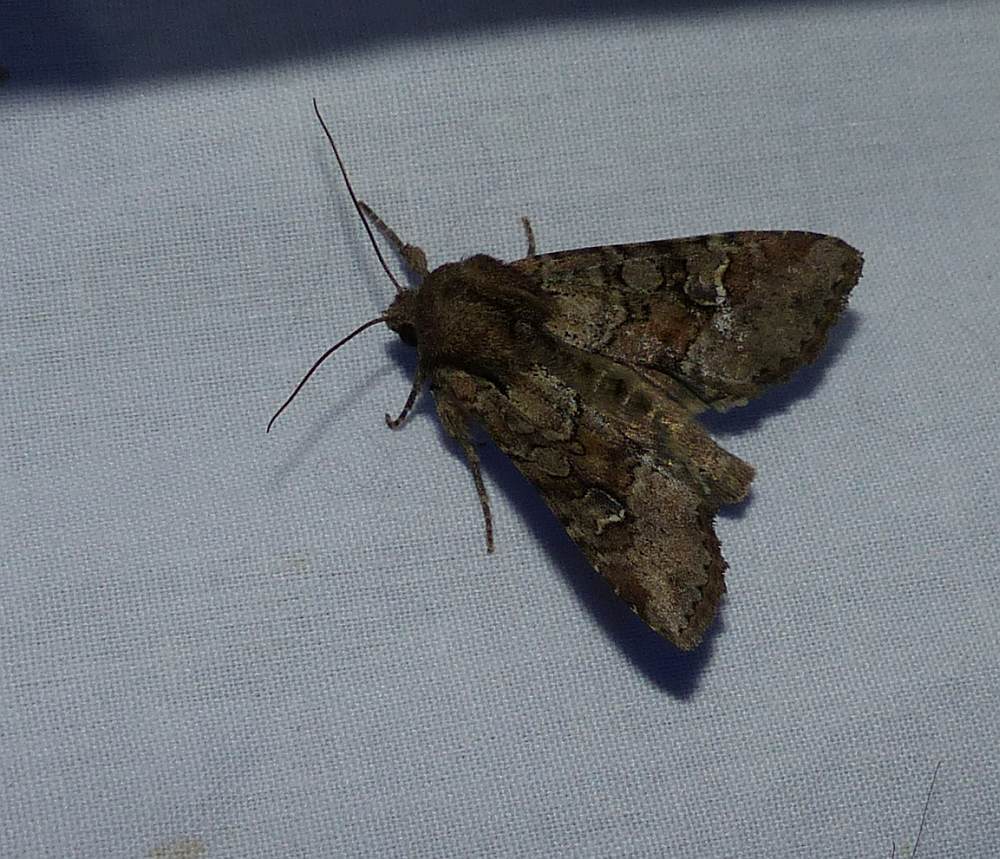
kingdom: Animalia
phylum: Arthropoda
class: Insecta
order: Lepidoptera
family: Noctuidae
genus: Apamea
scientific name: Apamea sordens
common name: Rustic shoulder-knot
